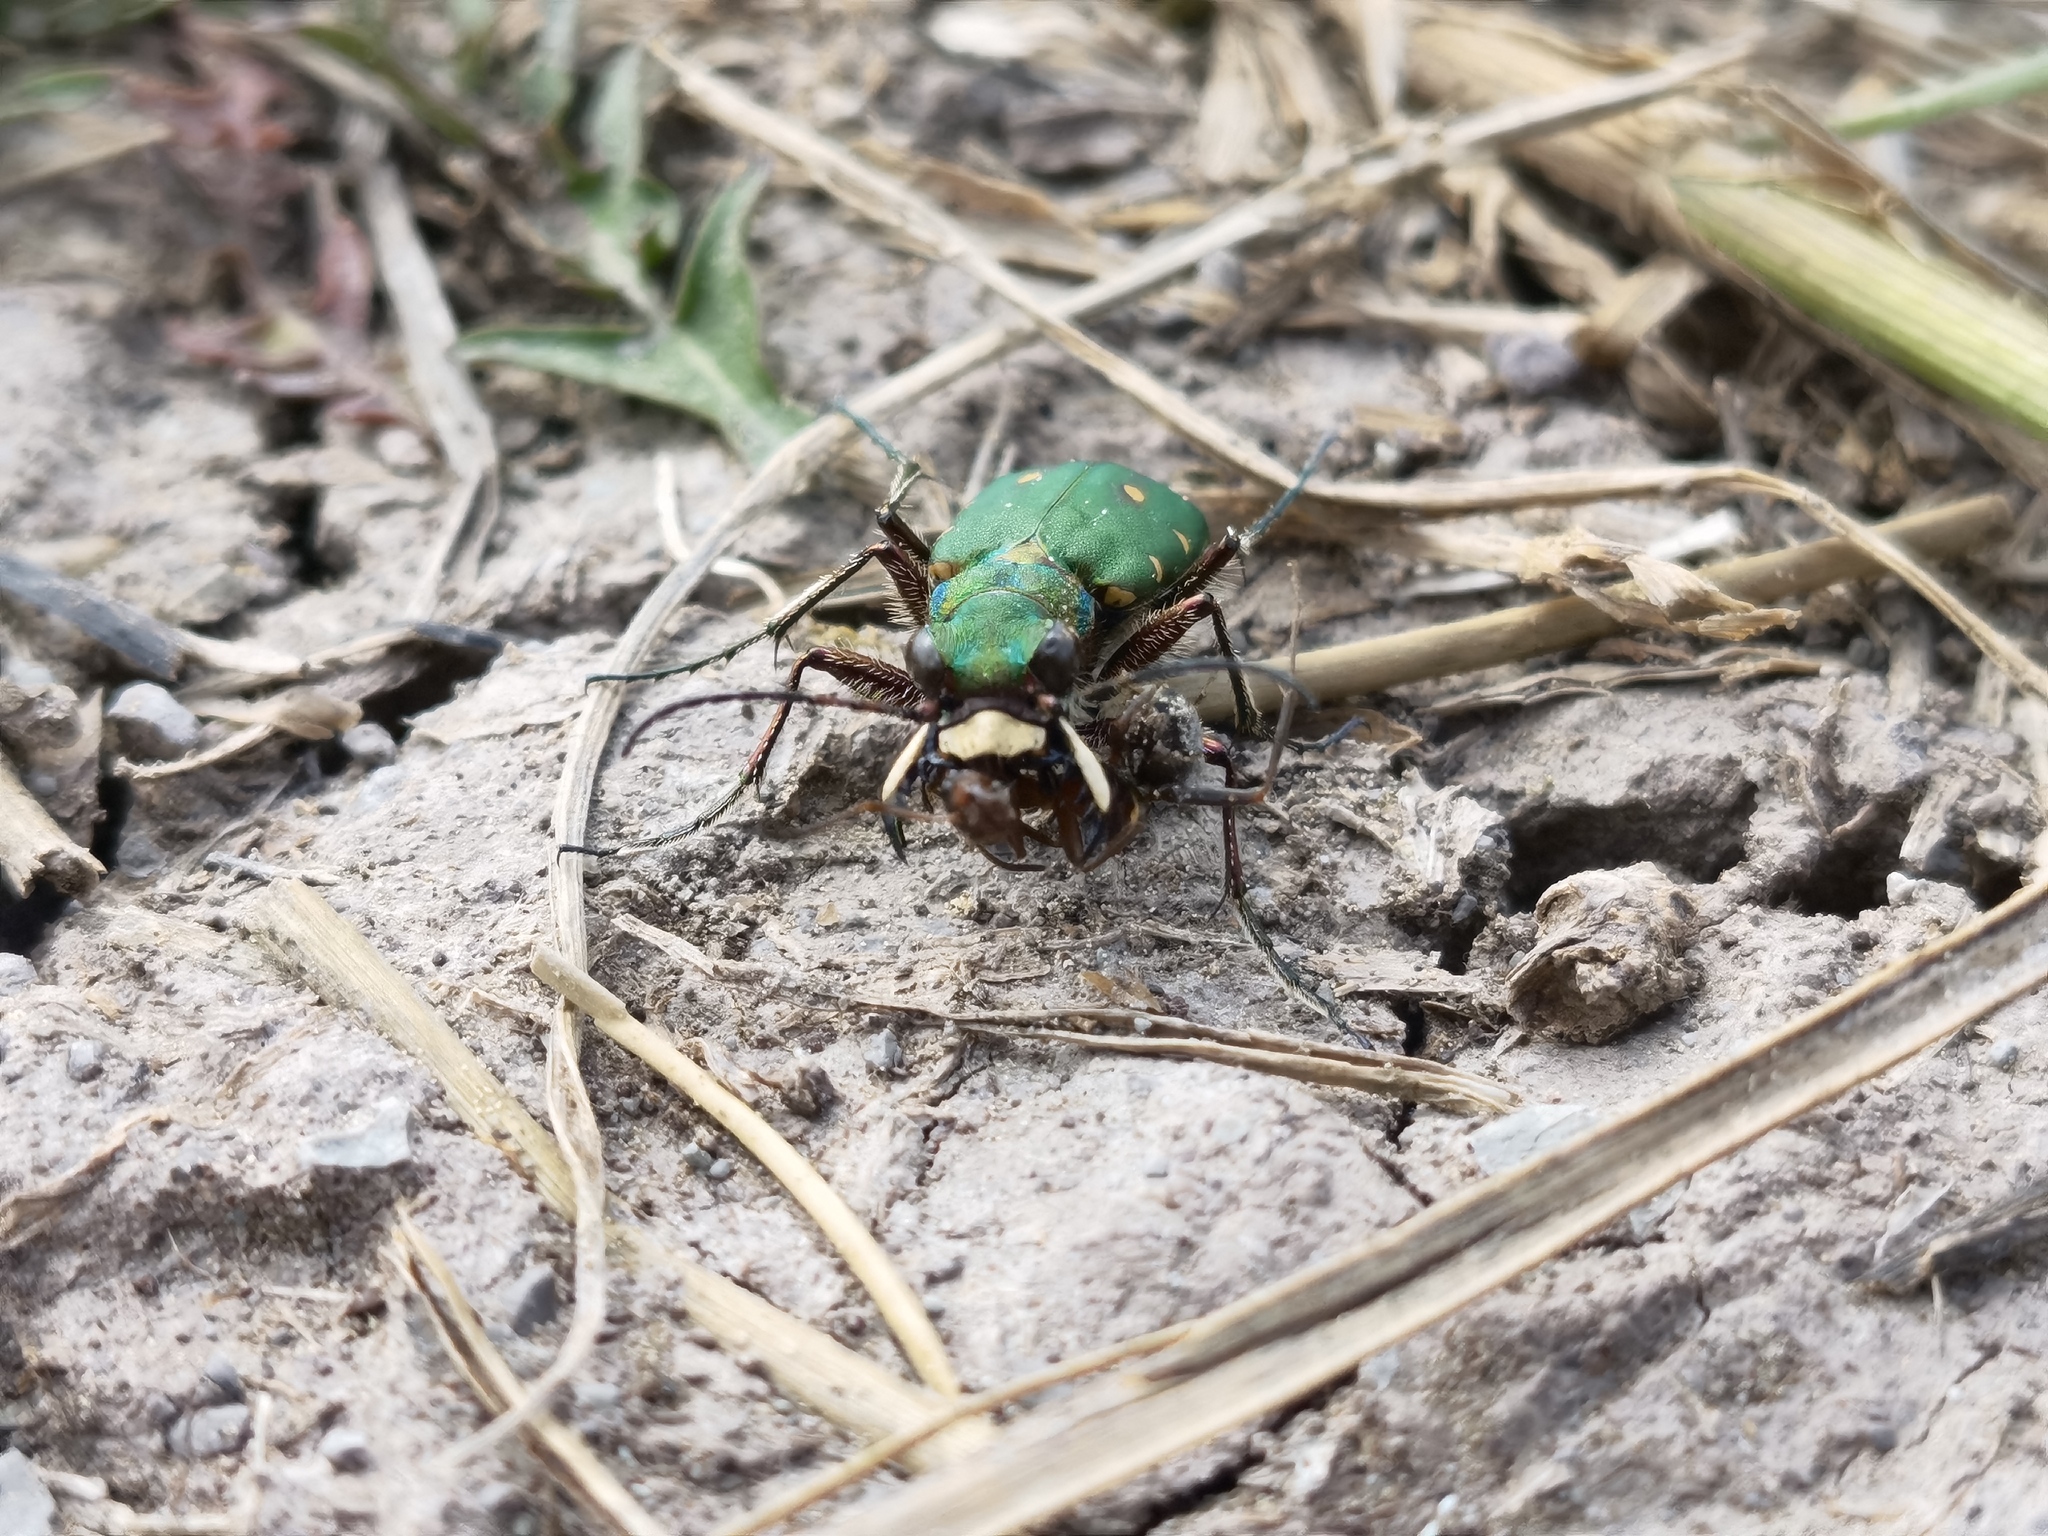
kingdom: Animalia
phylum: Arthropoda
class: Insecta
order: Coleoptera
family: Carabidae
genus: Cicindela
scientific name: Cicindela campestris
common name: Common tiger beetle
